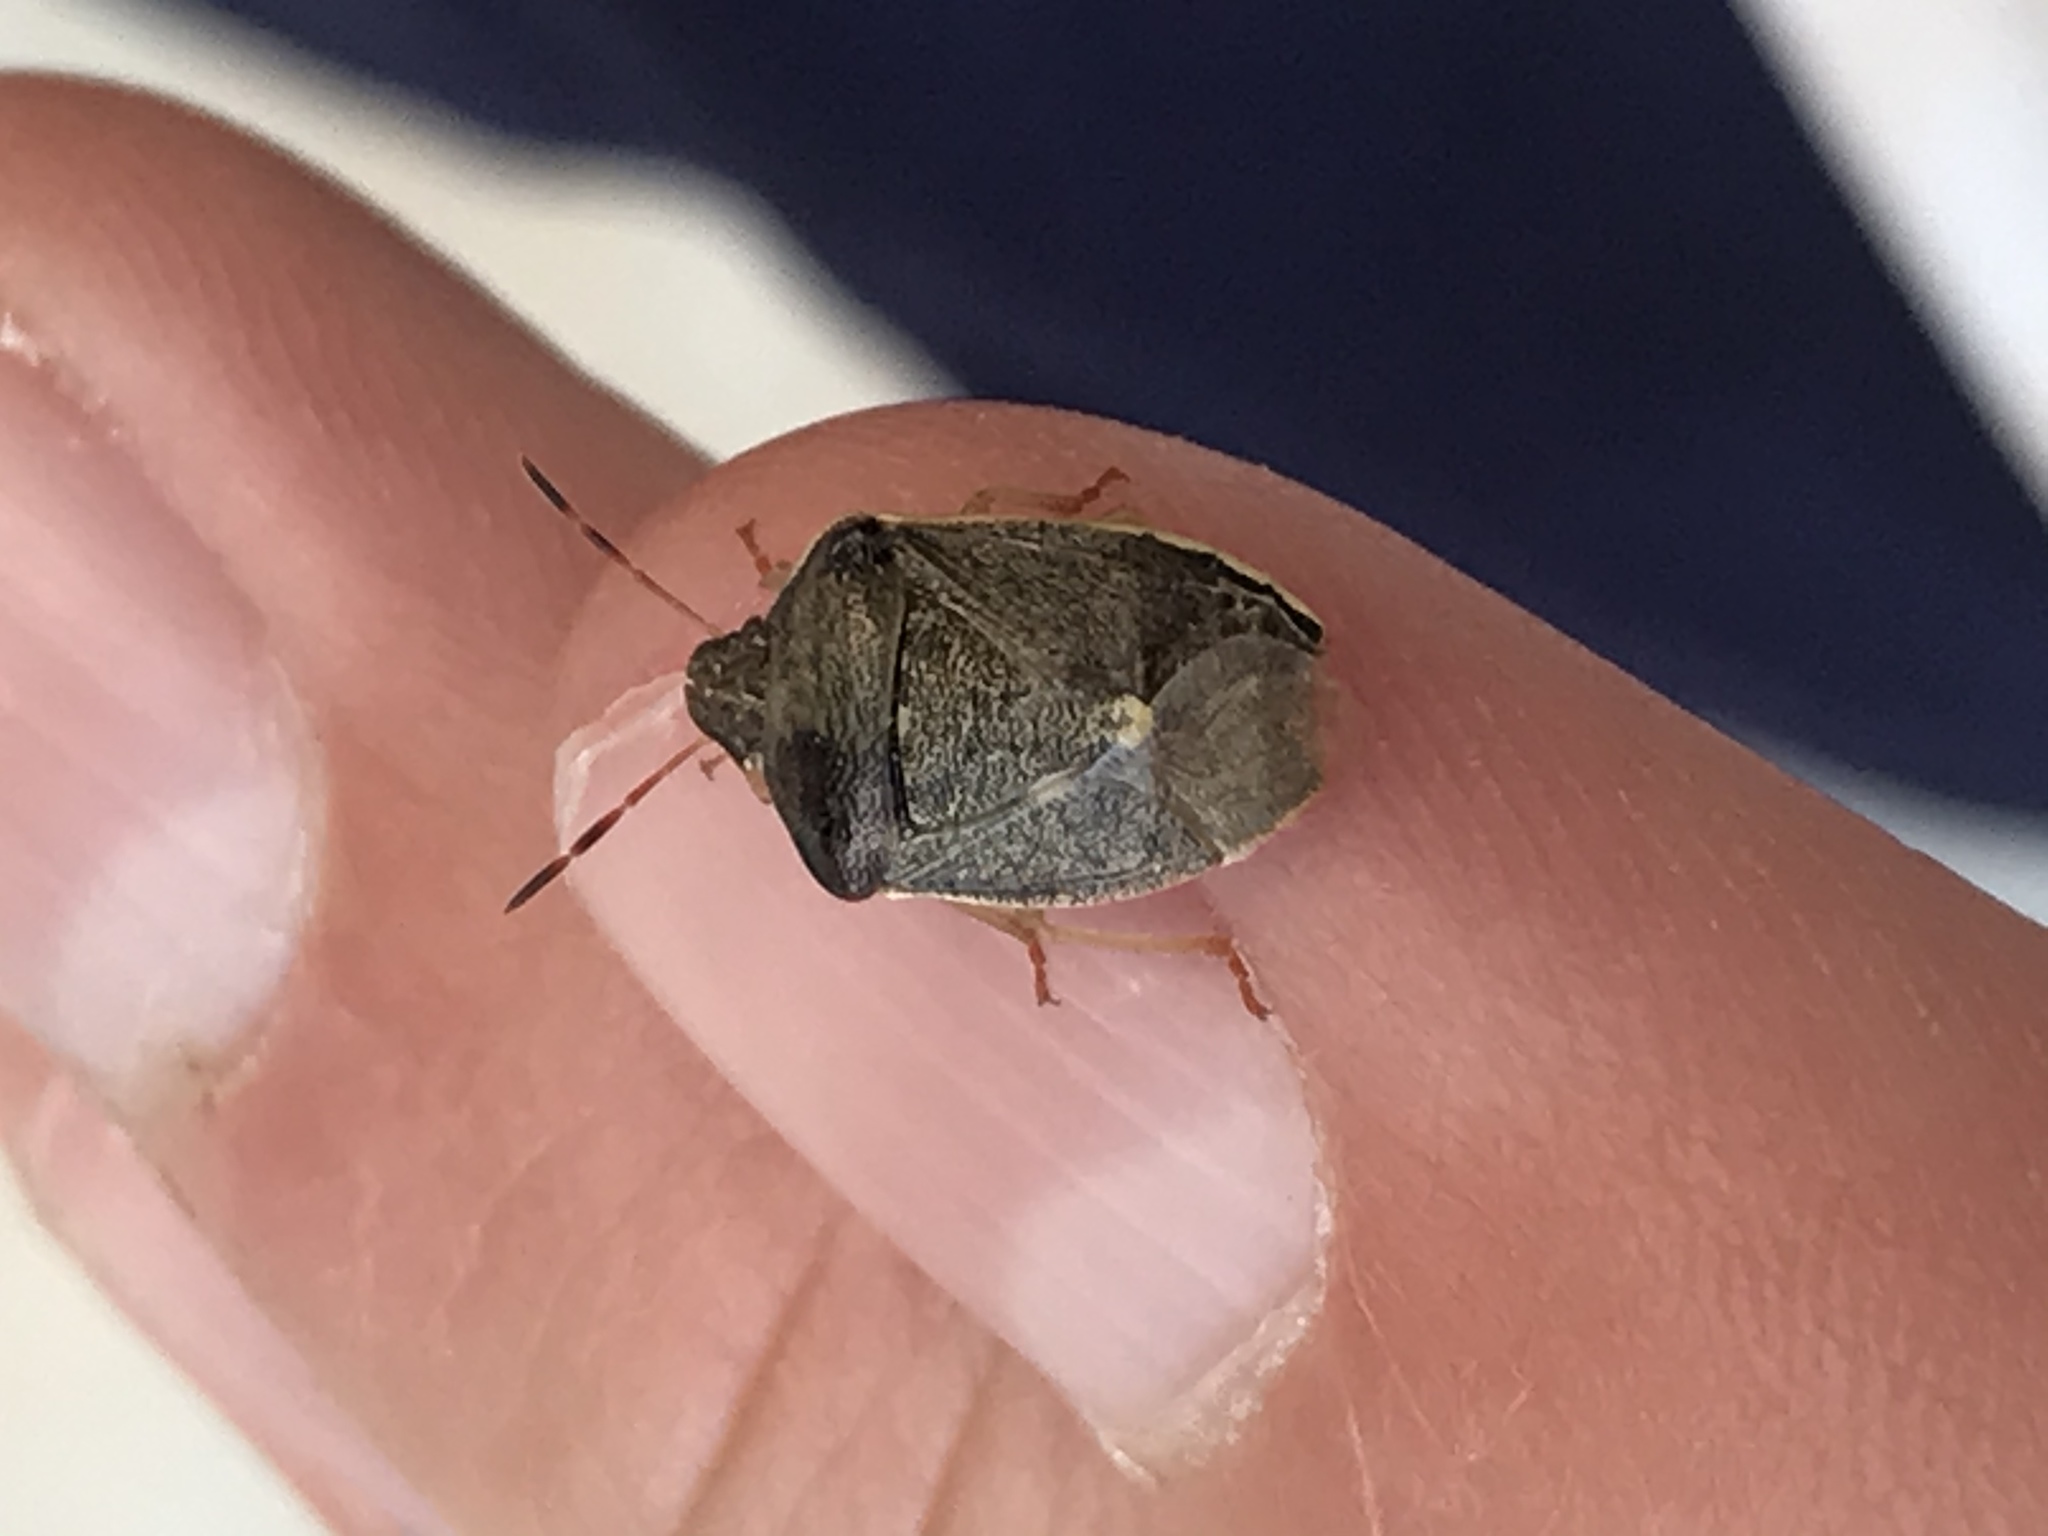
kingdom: Animalia
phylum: Arthropoda
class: Insecta
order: Hemiptera
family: Pentatomidae
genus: Holcostethus
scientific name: Holcostethus limbolarius
